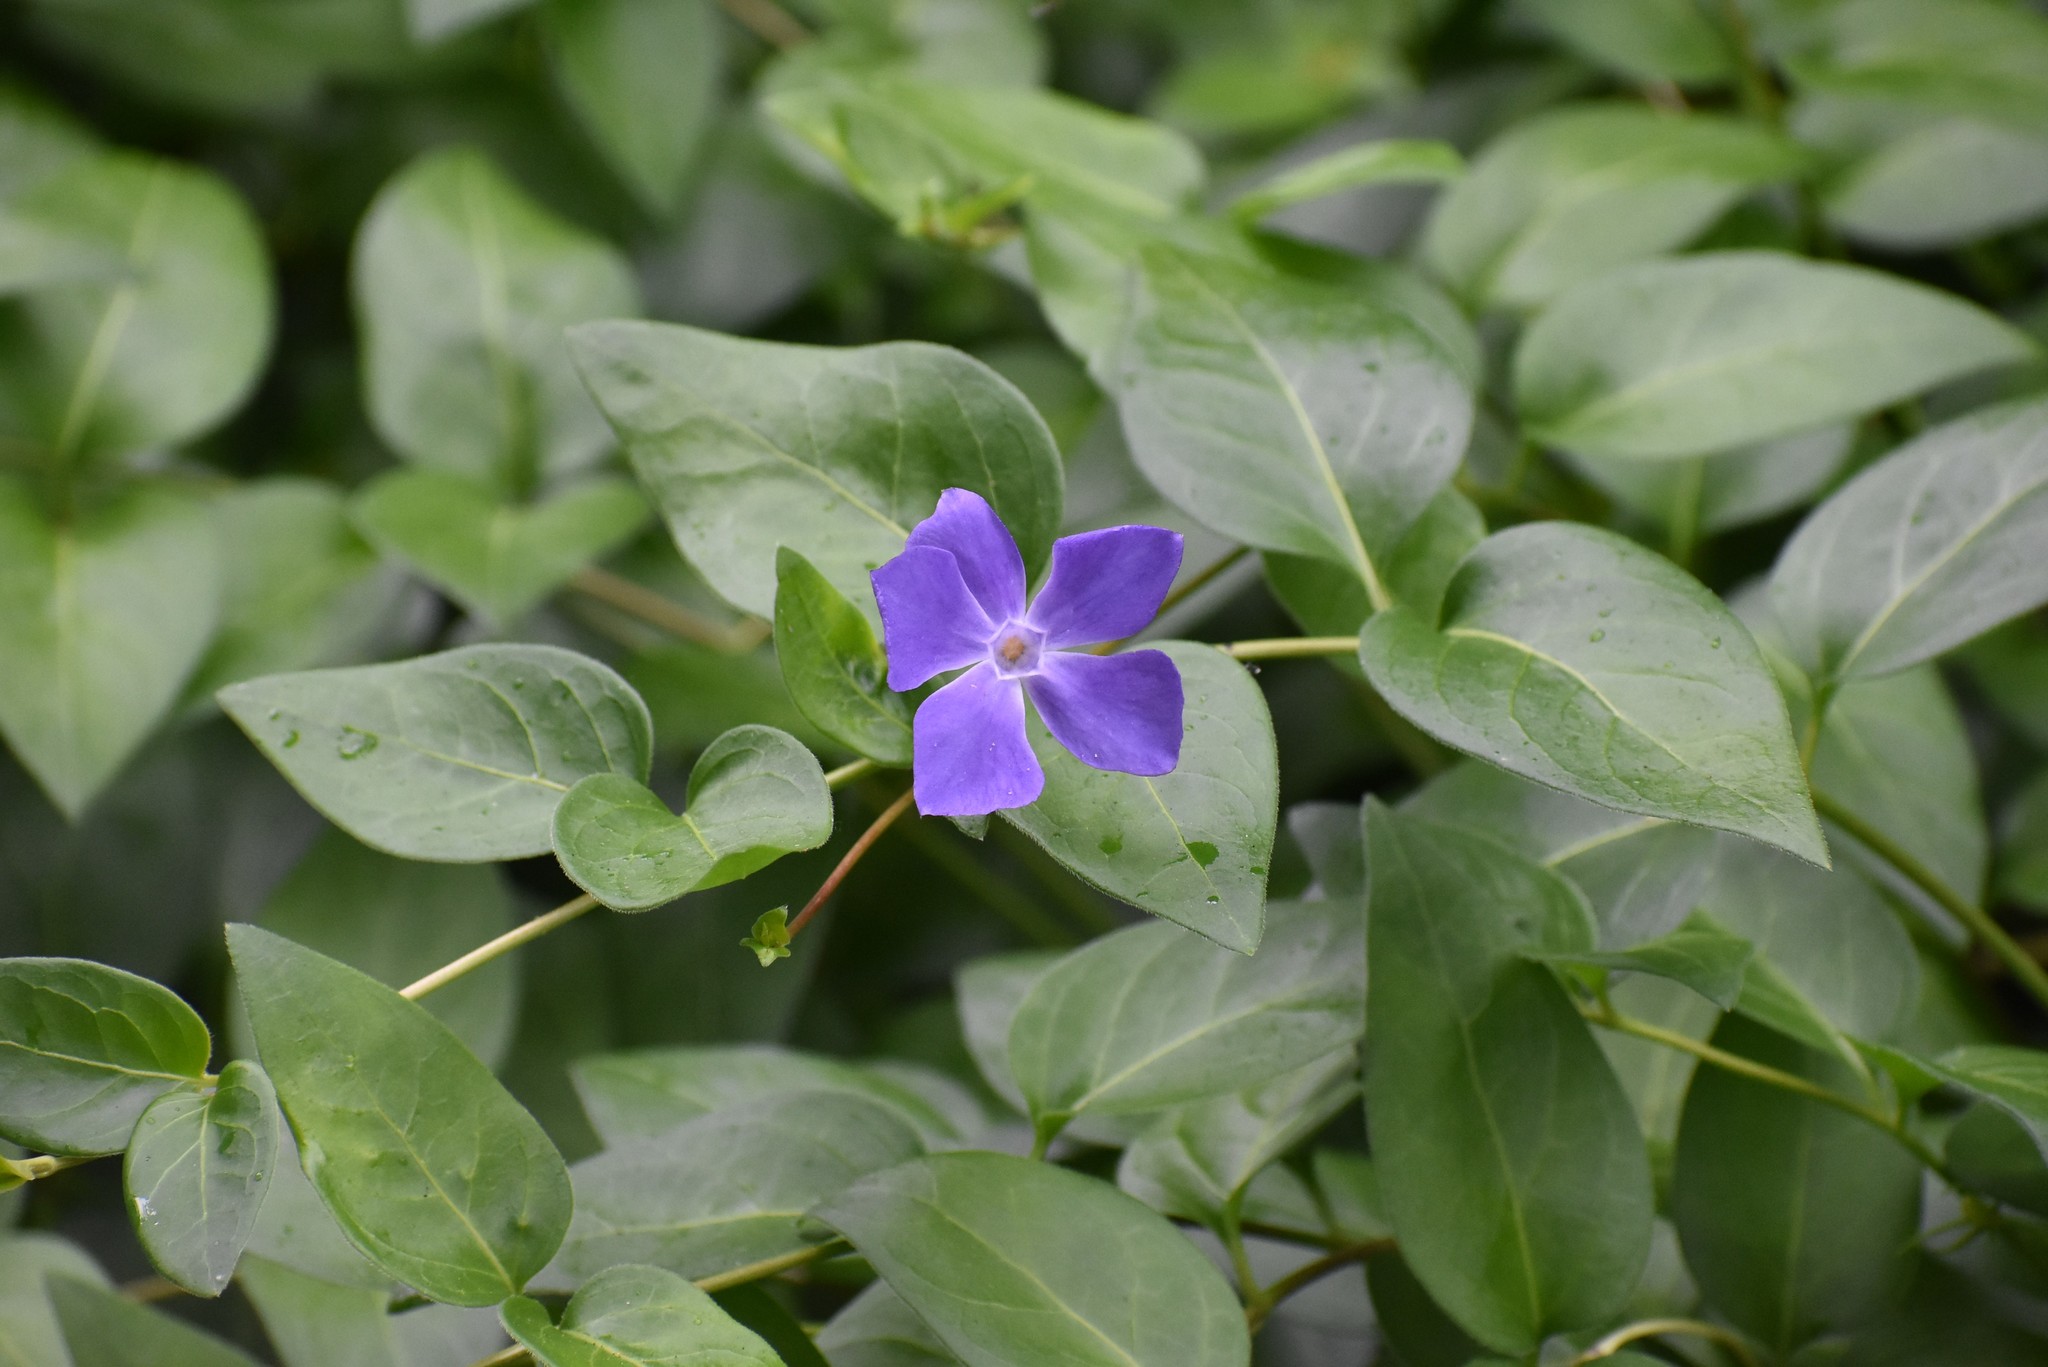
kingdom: Plantae
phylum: Tracheophyta
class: Magnoliopsida
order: Gentianales
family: Apocynaceae
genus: Vinca
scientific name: Vinca major
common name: Greater periwinkle
